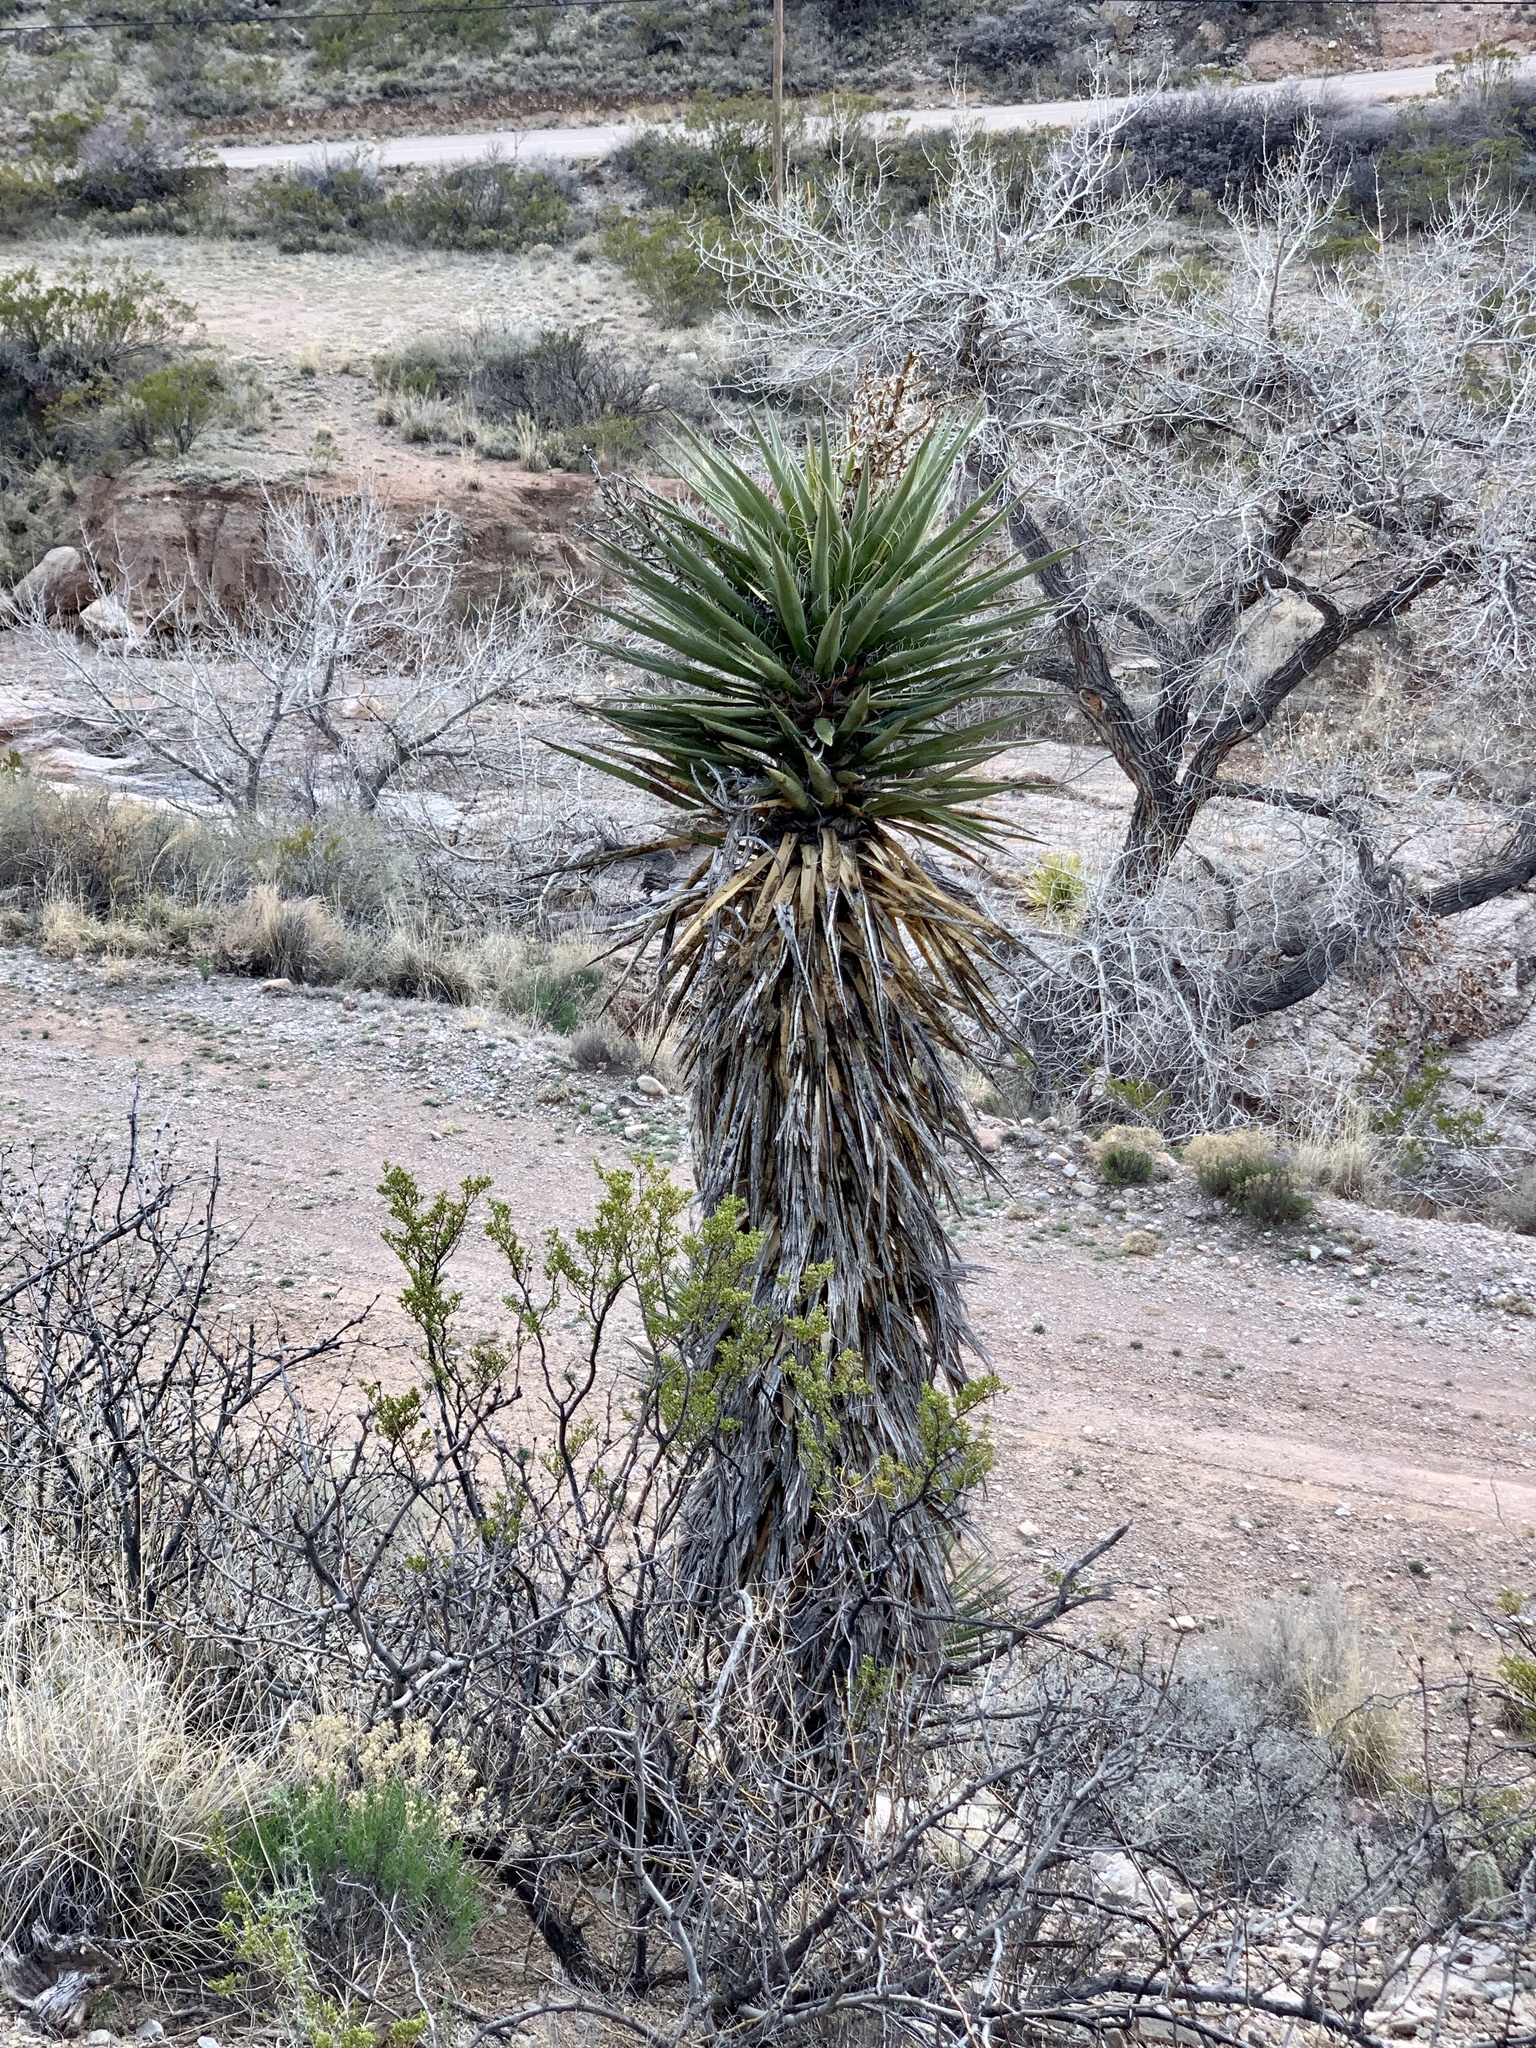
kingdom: Plantae
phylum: Tracheophyta
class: Liliopsida
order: Asparagales
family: Asparagaceae
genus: Yucca
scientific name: Yucca treculiana
